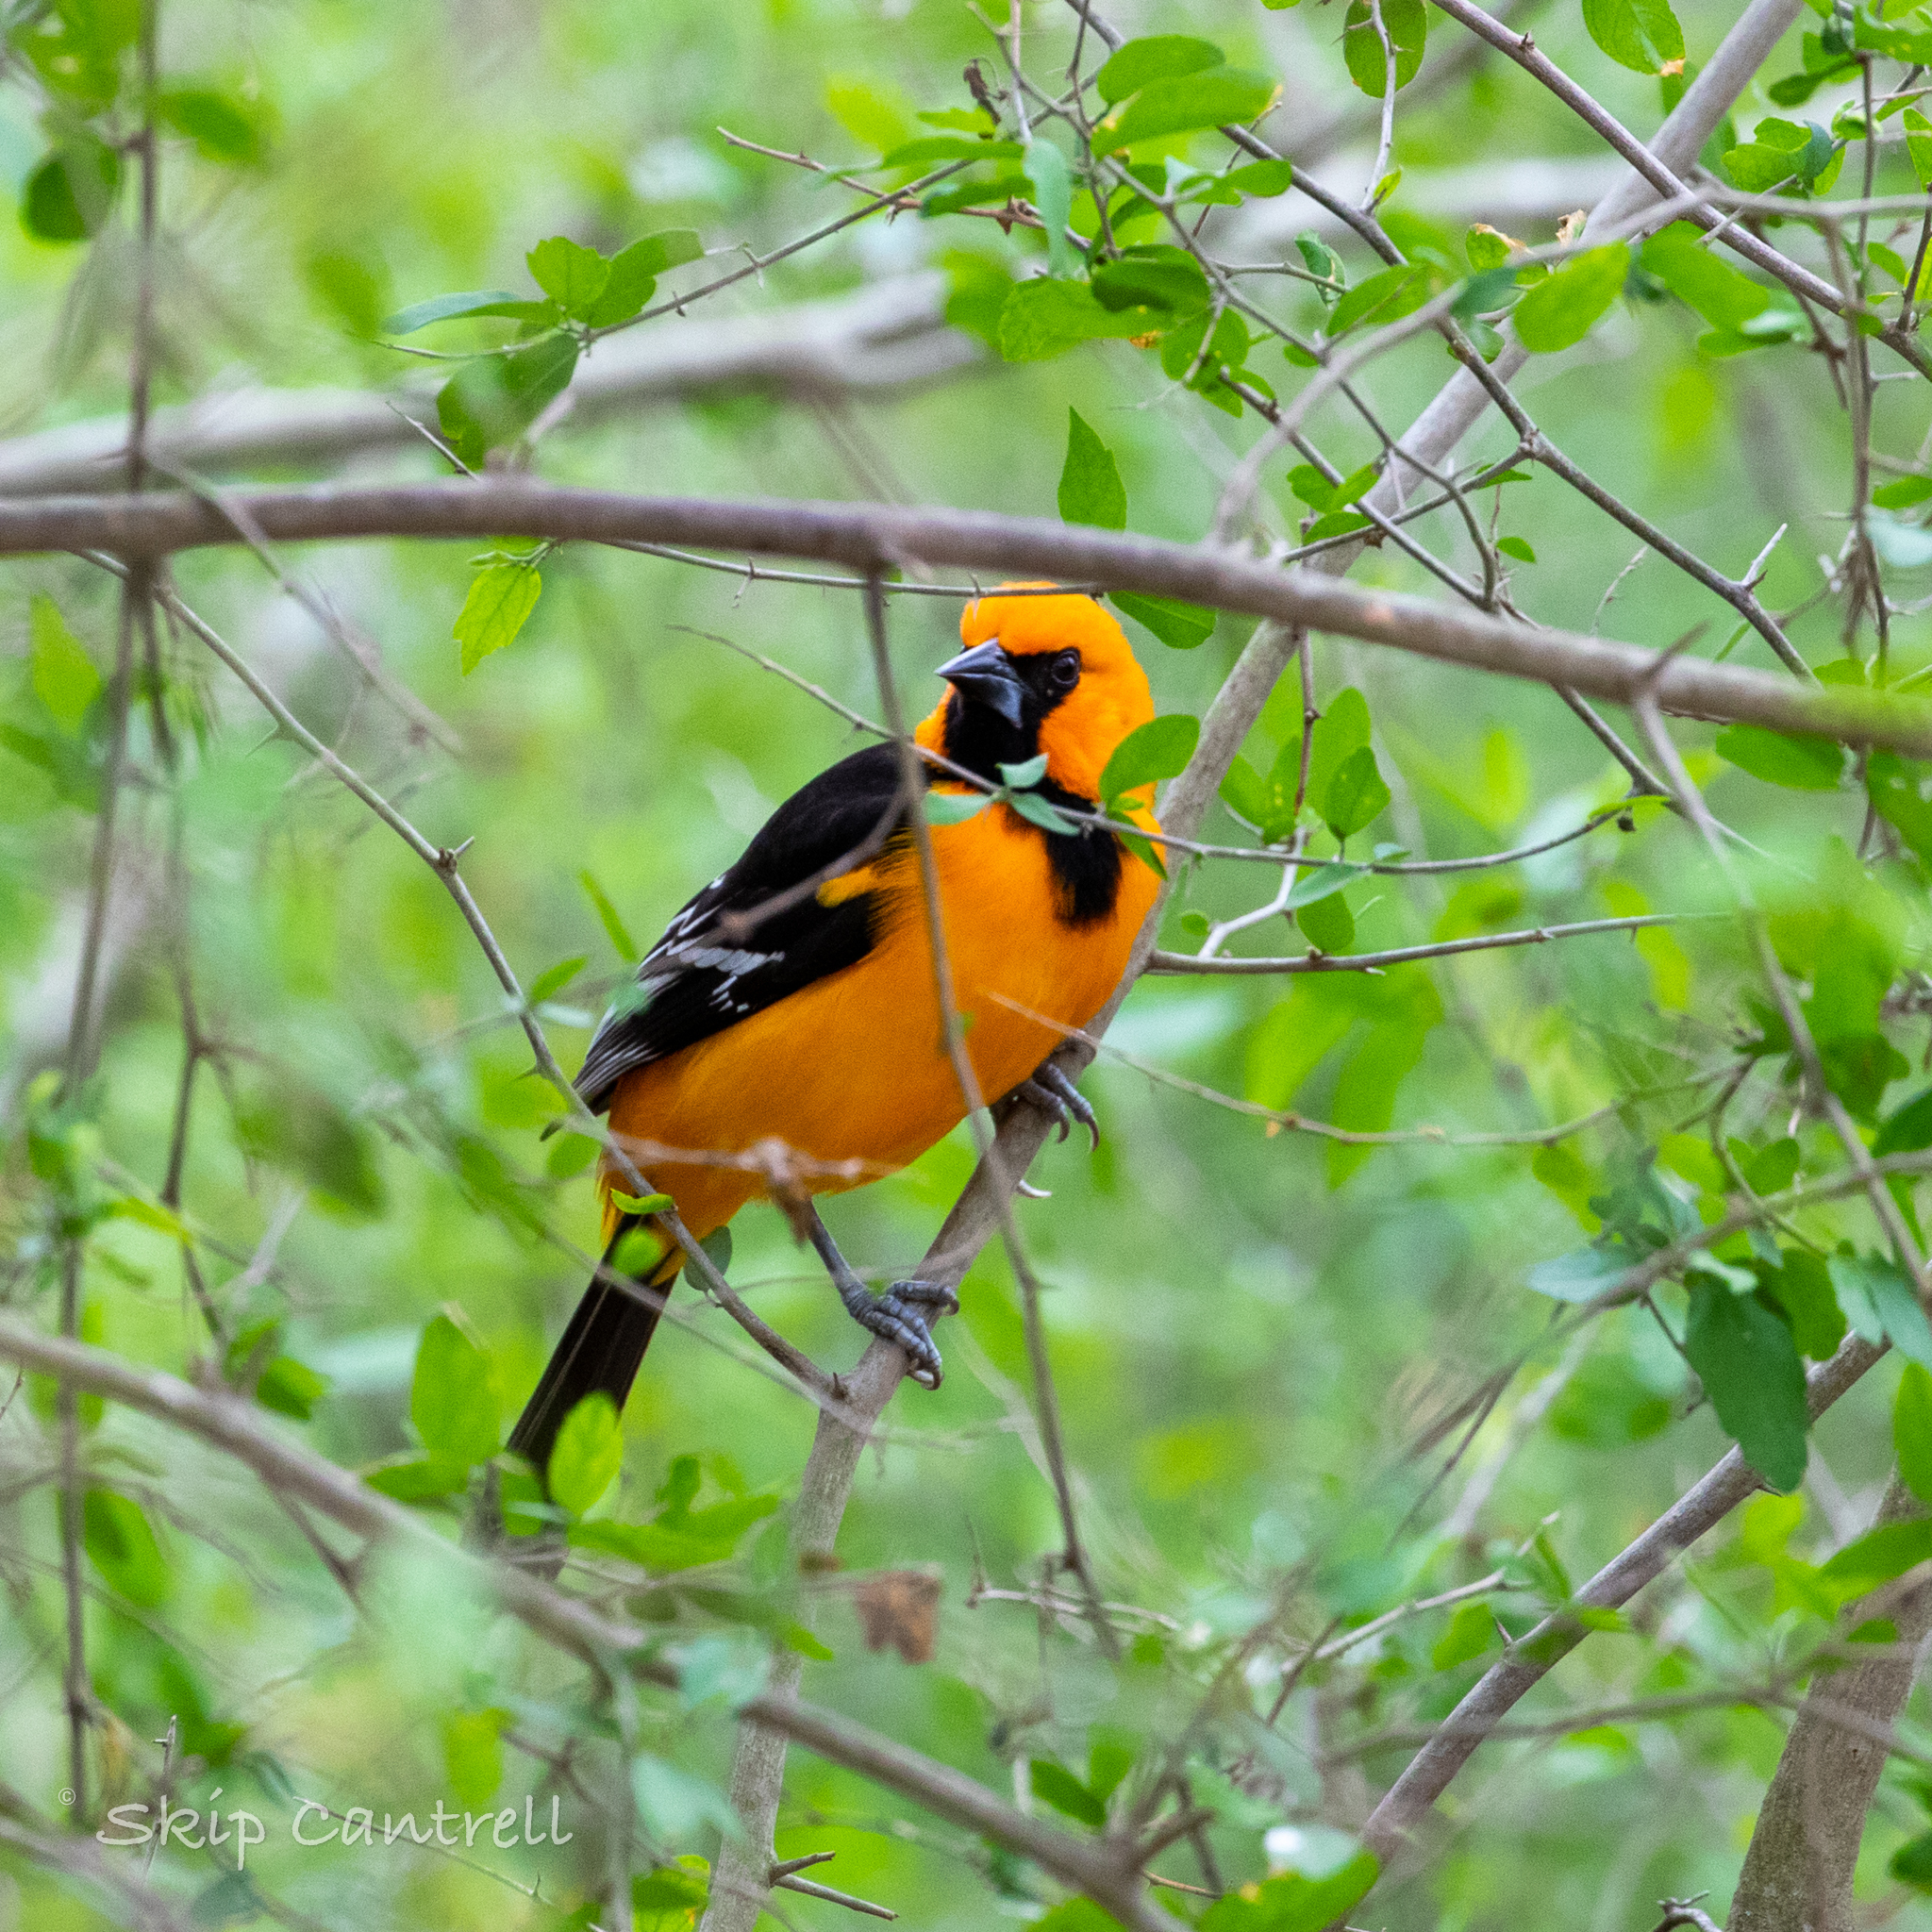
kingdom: Animalia
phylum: Chordata
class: Aves
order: Passeriformes
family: Icteridae
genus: Icterus
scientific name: Icterus gularis
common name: Altamira oriole
